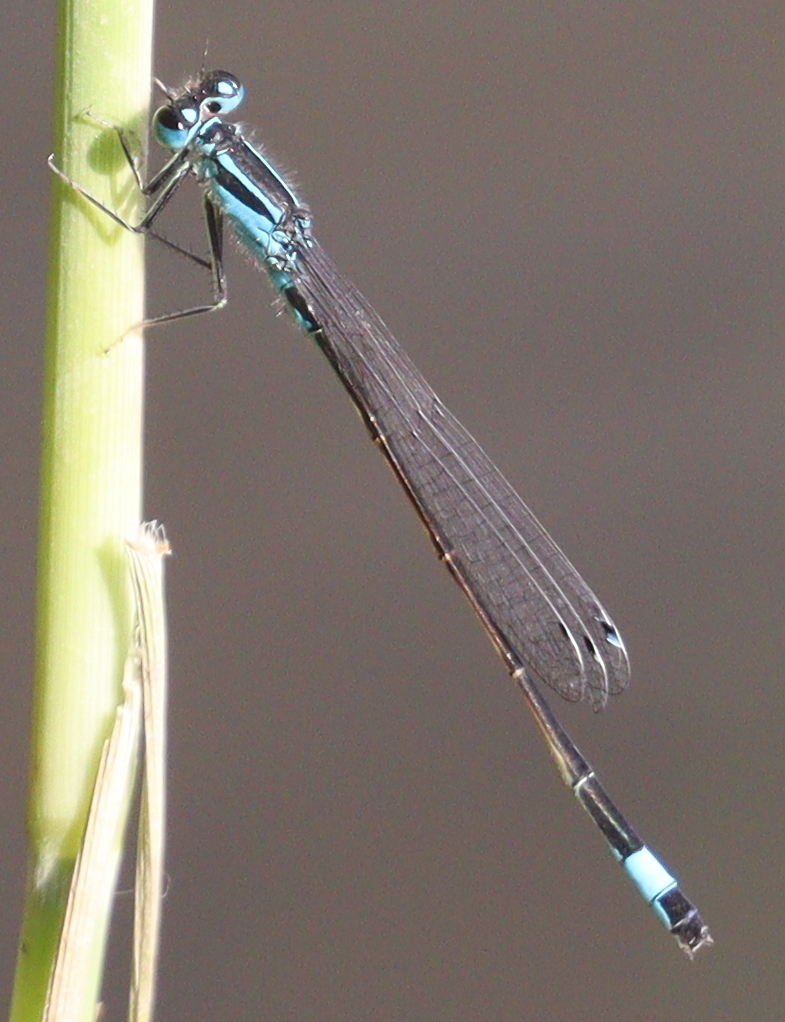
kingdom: Animalia
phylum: Arthropoda
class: Insecta
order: Odonata
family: Coenagrionidae
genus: Ischnura
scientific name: Ischnura elegans
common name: Blue-tailed damselfly
